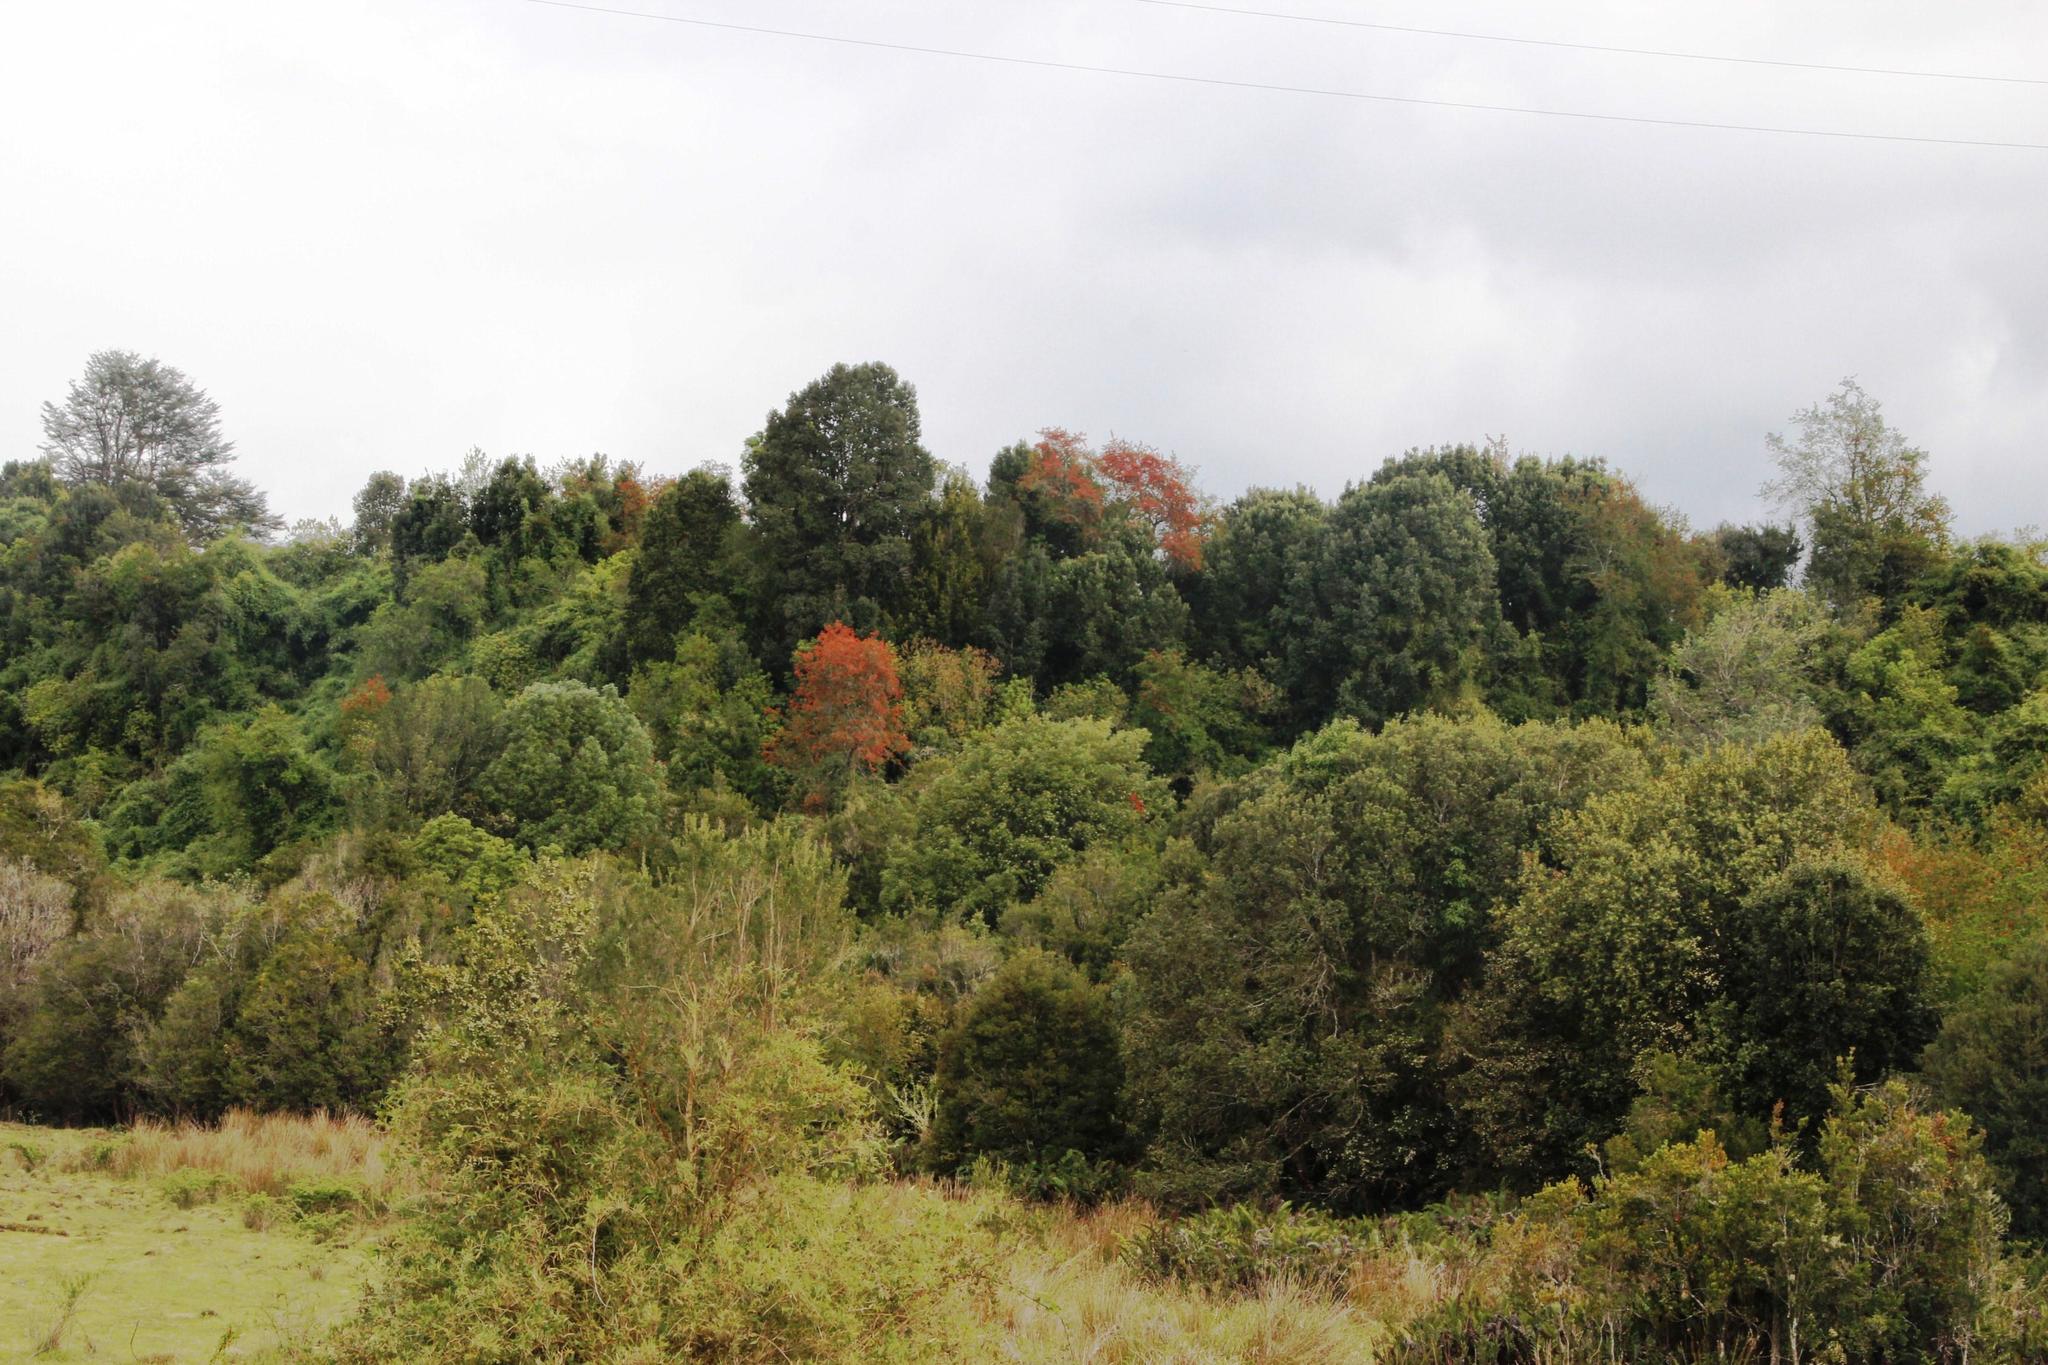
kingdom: Plantae
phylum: Tracheophyta
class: Magnoliopsida
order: Proteales
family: Proteaceae
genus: Embothrium
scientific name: Embothrium coccineum
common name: Chilean firebush
